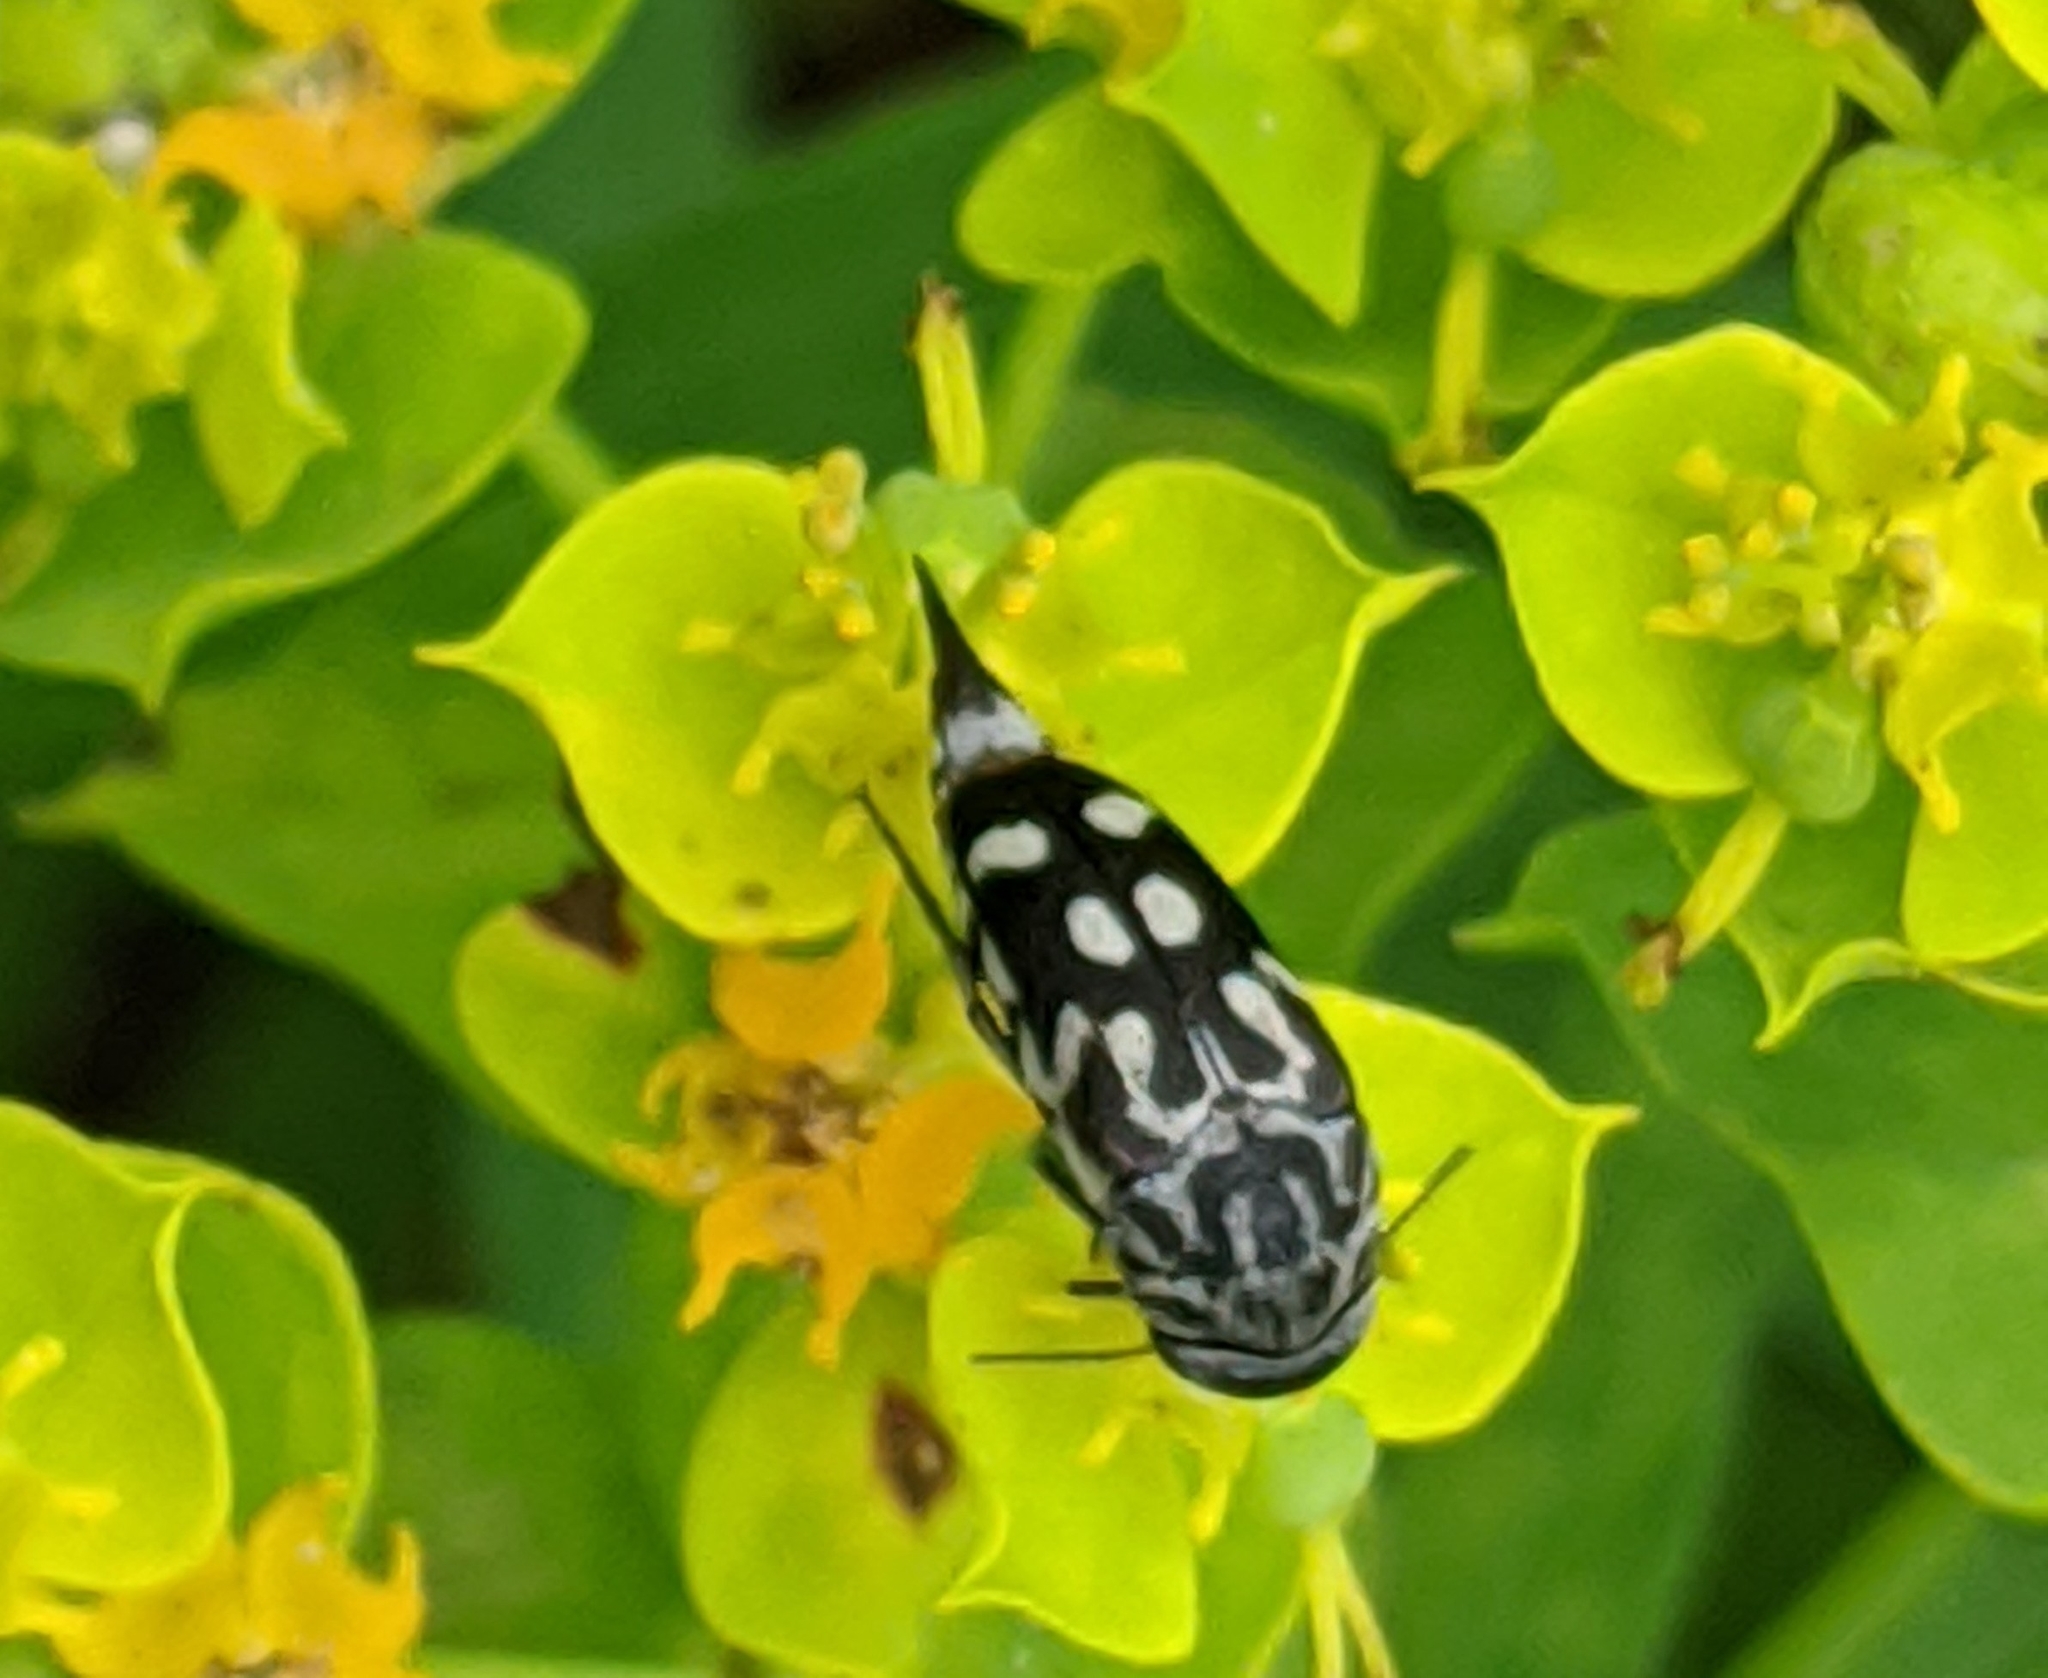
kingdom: Animalia
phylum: Arthropoda
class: Insecta
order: Coleoptera
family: Mordellidae
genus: Hoshihananomia
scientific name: Hoshihananomia octopunctata
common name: Eight-spotted tumbling flower beetle
